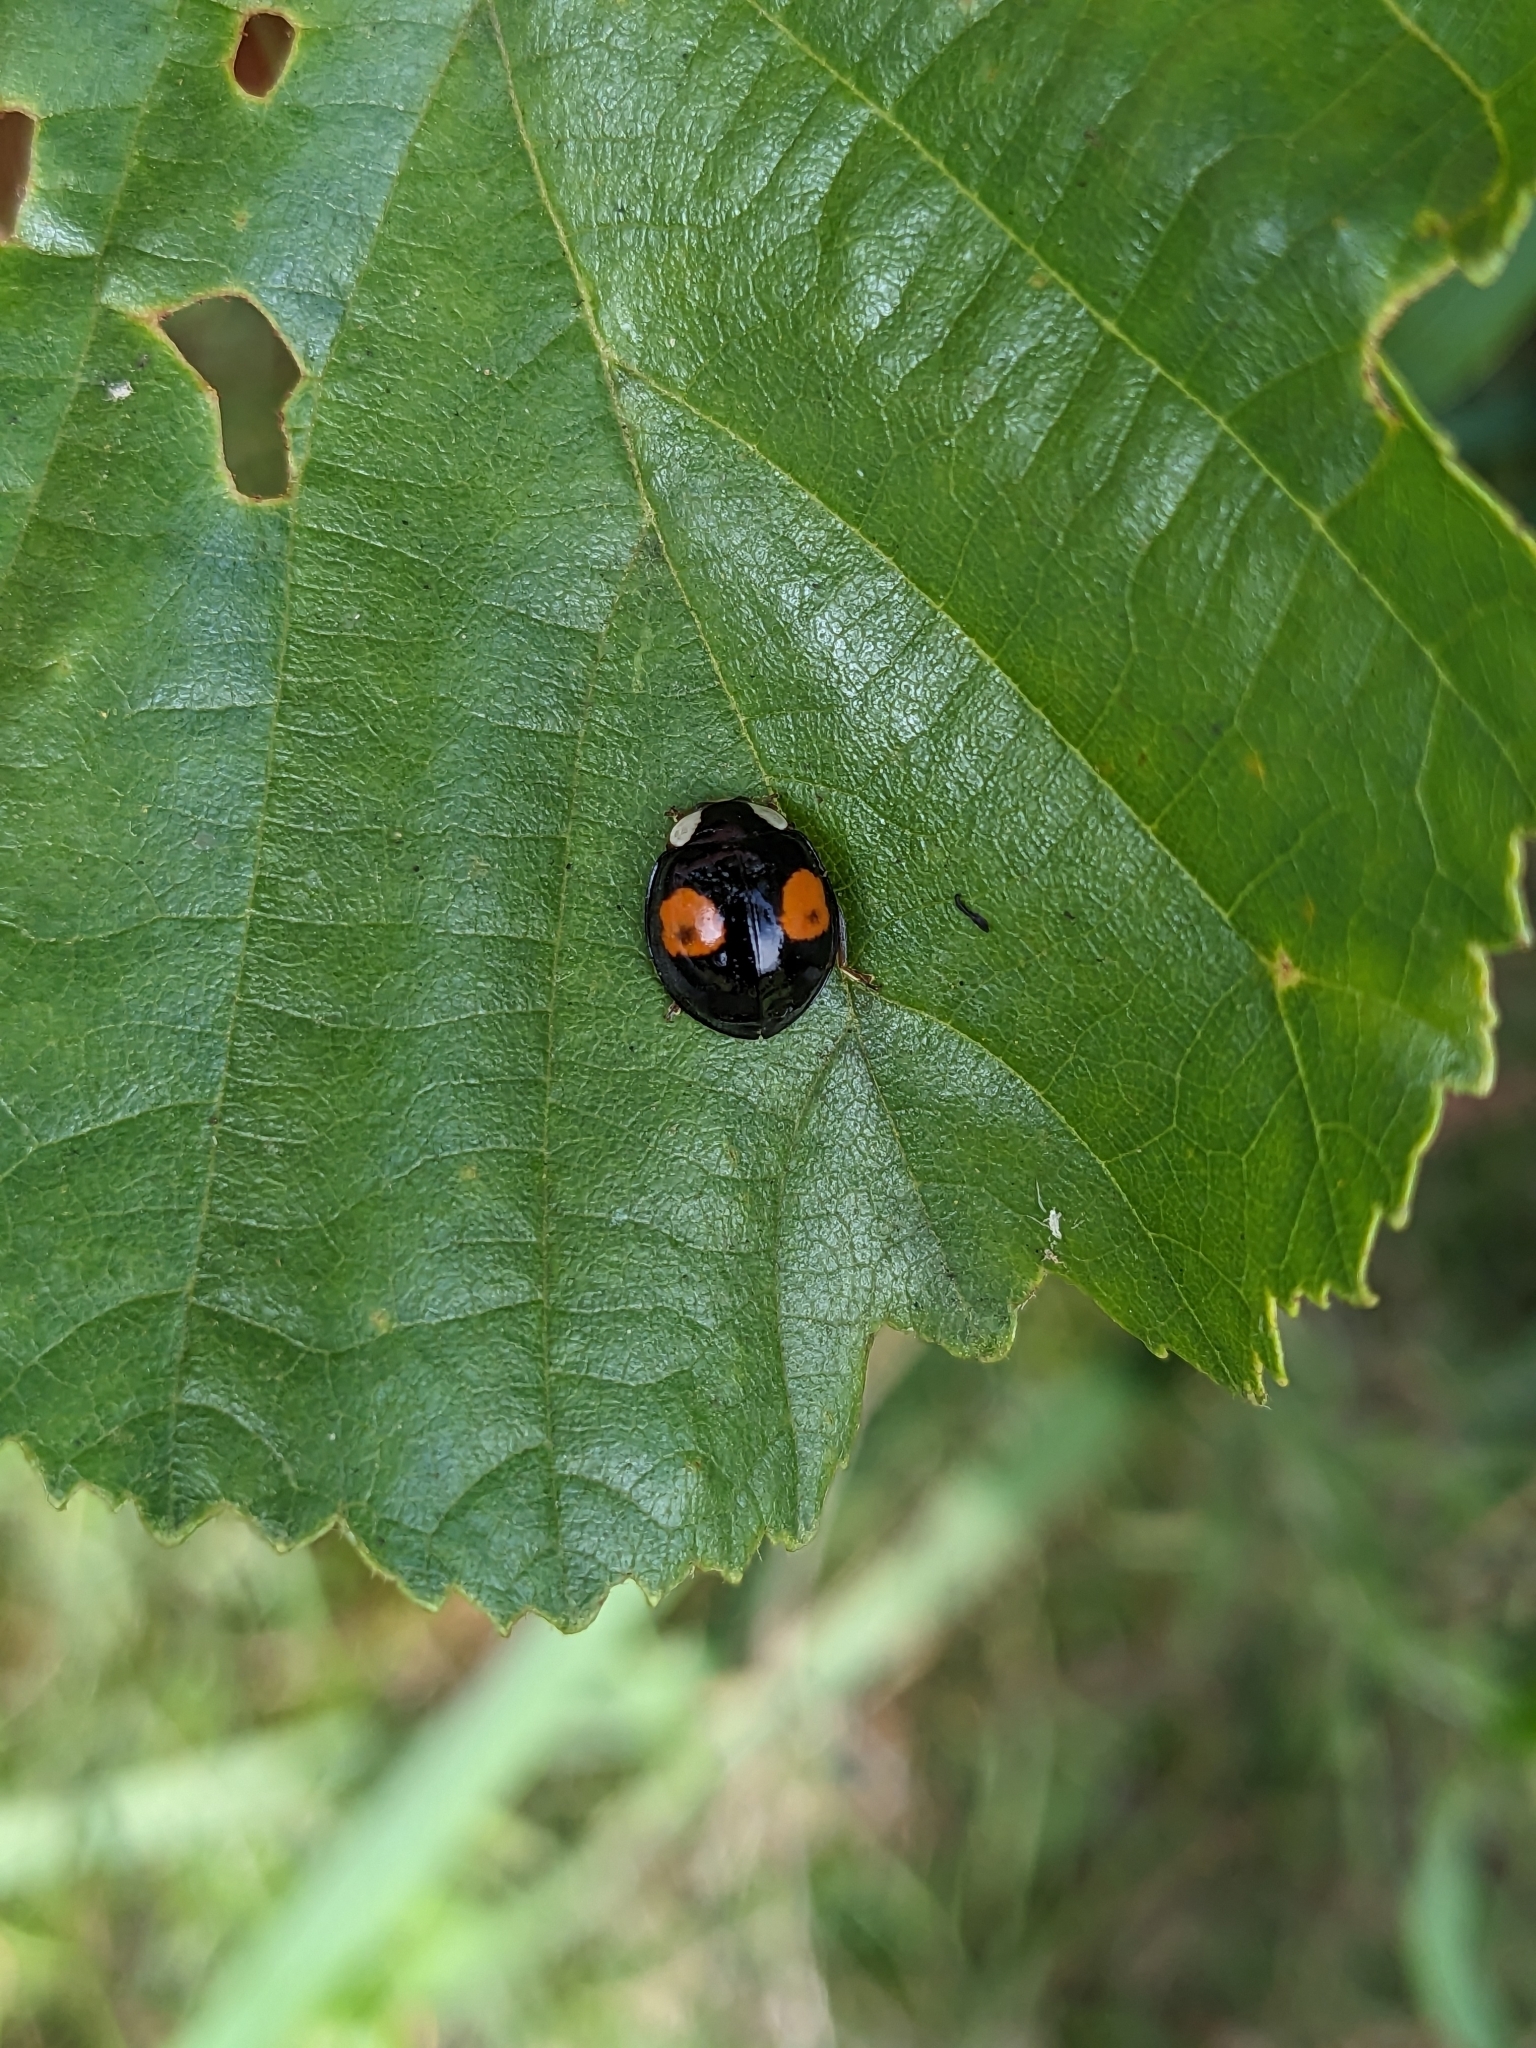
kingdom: Animalia
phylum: Arthropoda
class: Insecta
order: Coleoptera
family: Coccinellidae
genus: Harmonia
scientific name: Harmonia axyridis
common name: Harlequin ladybird
